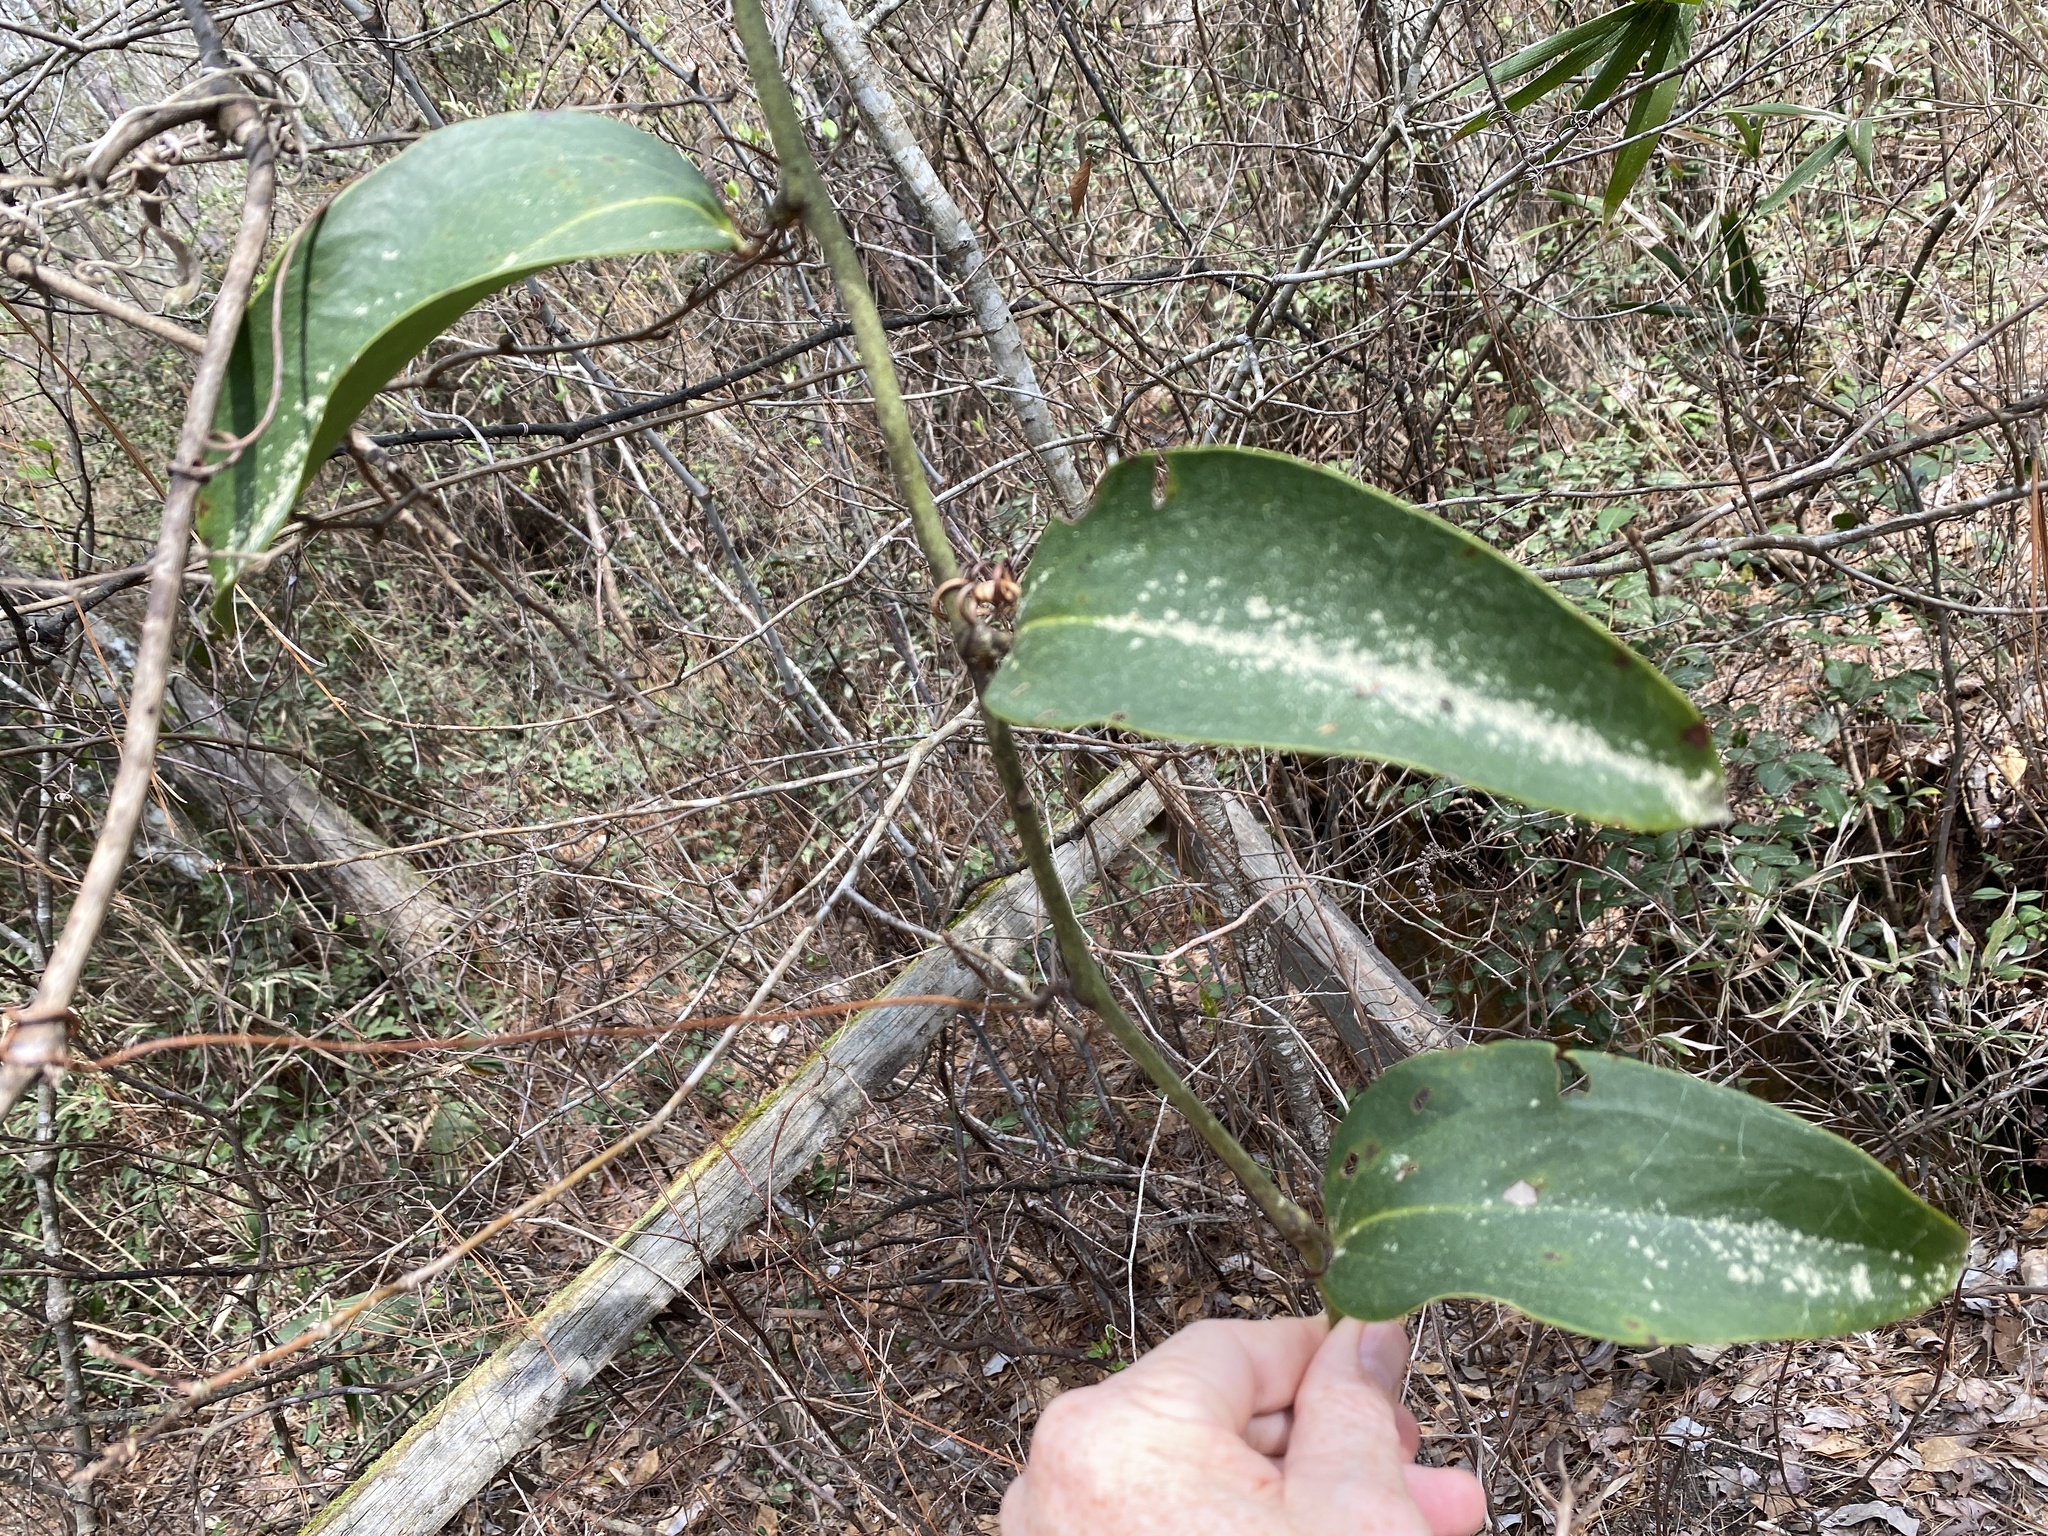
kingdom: Plantae
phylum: Tracheophyta
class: Liliopsida
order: Liliales
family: Smilacaceae
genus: Smilax
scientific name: Smilax laurifolia
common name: Bamboovine
